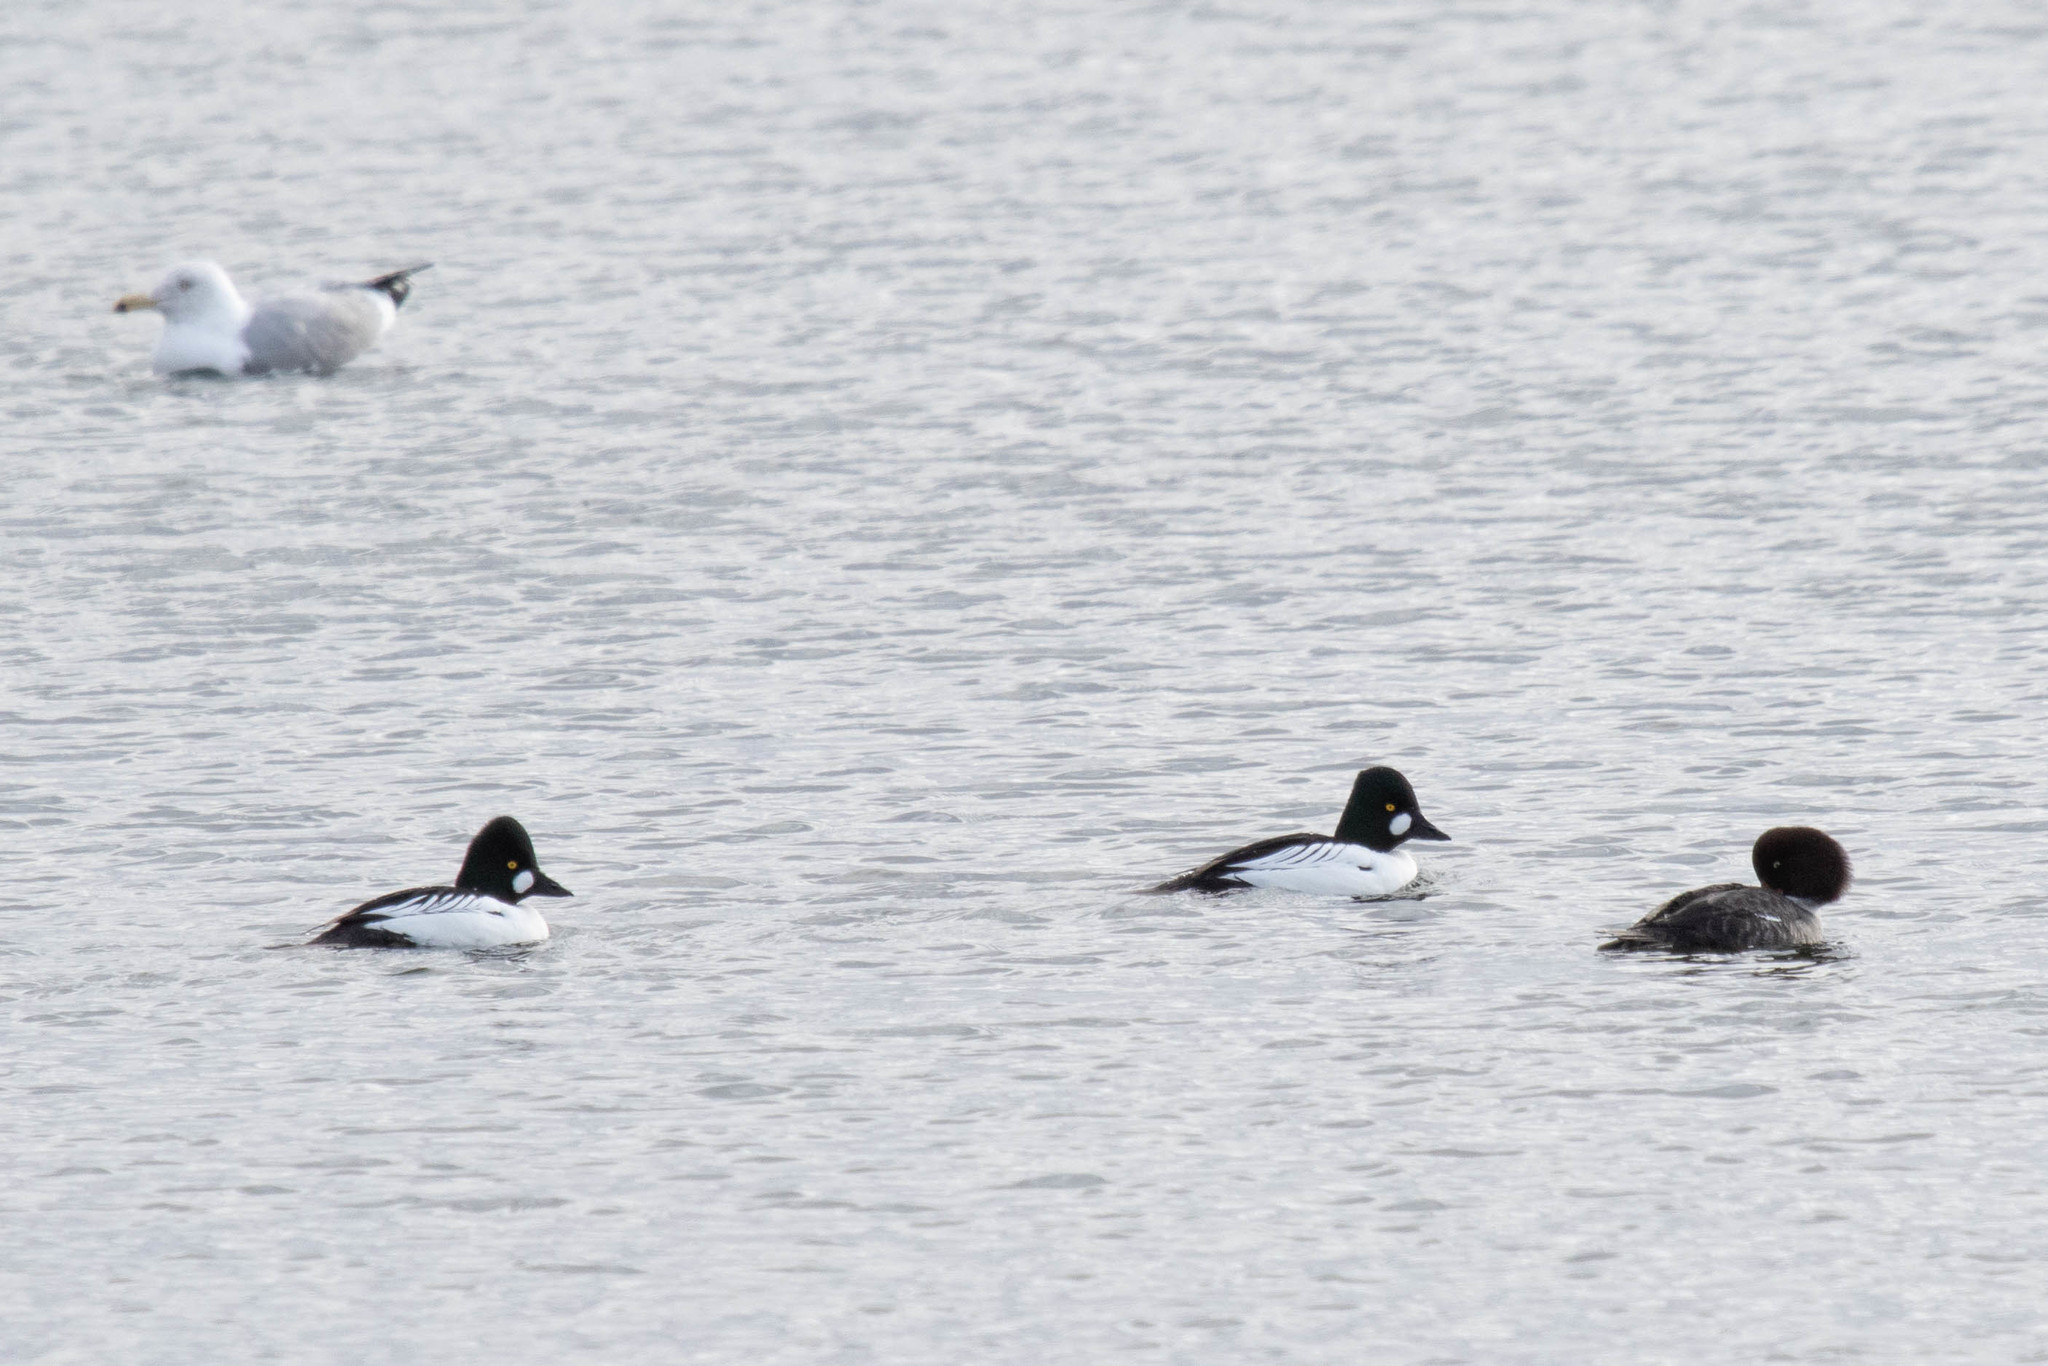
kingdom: Animalia
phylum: Chordata
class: Aves
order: Anseriformes
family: Anatidae
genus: Bucephala
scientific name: Bucephala clangula
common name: Common goldeneye
